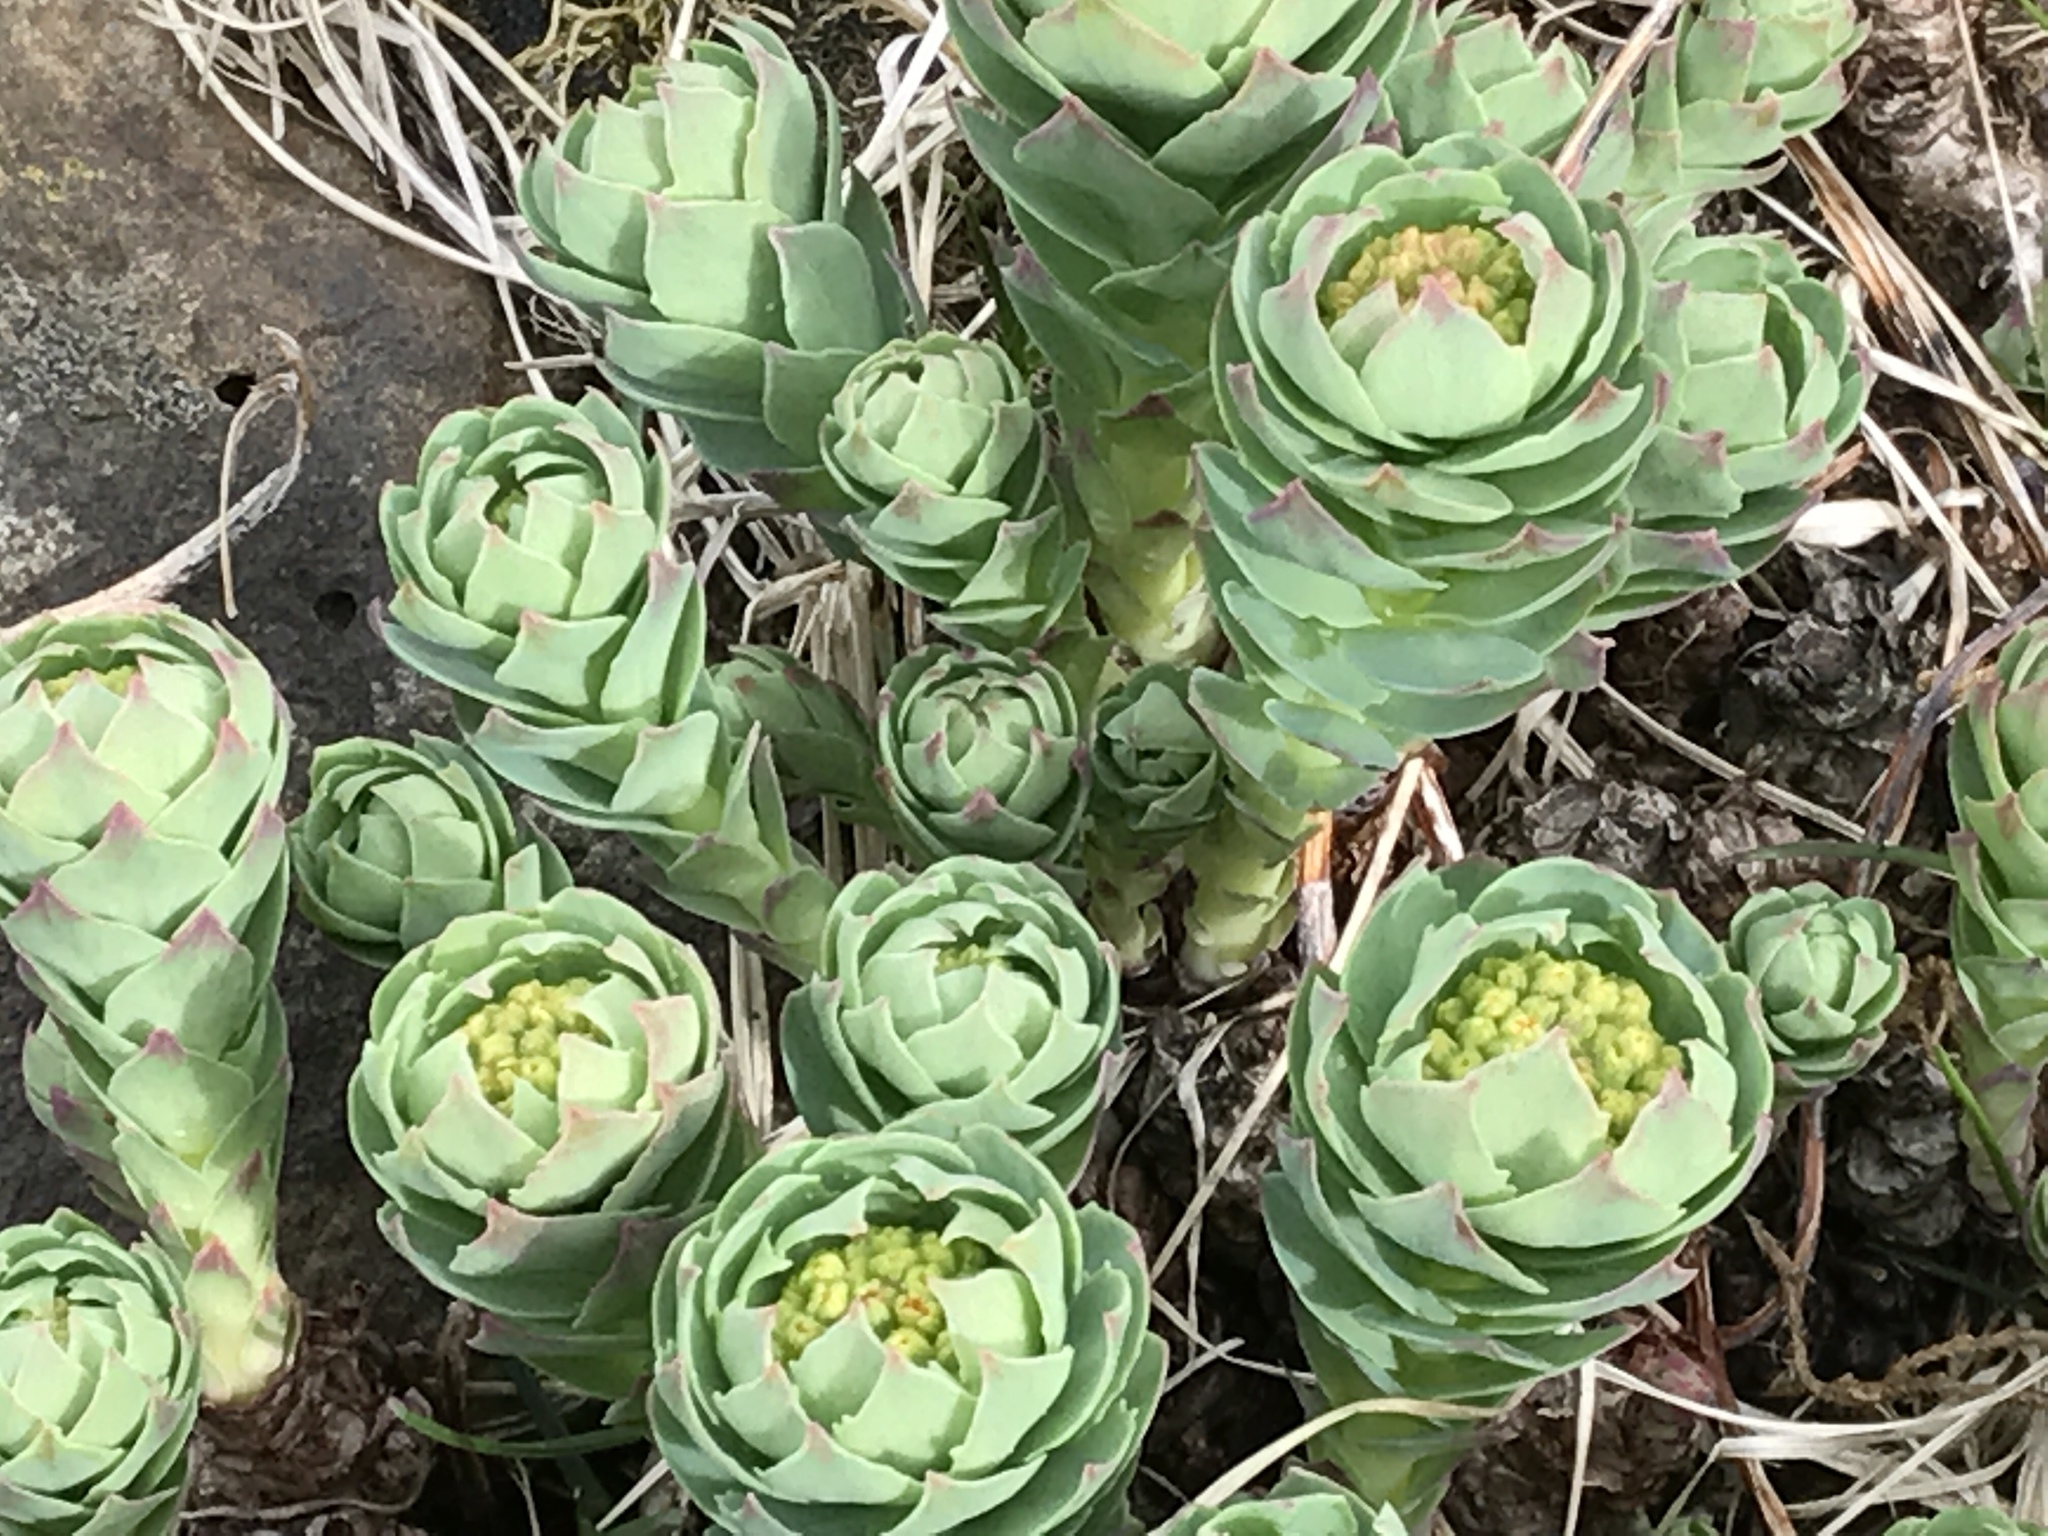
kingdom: Plantae
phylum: Tracheophyta
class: Magnoliopsida
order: Saxifragales
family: Crassulaceae
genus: Rhodiola
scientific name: Rhodiola rosea
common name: Roseroot
